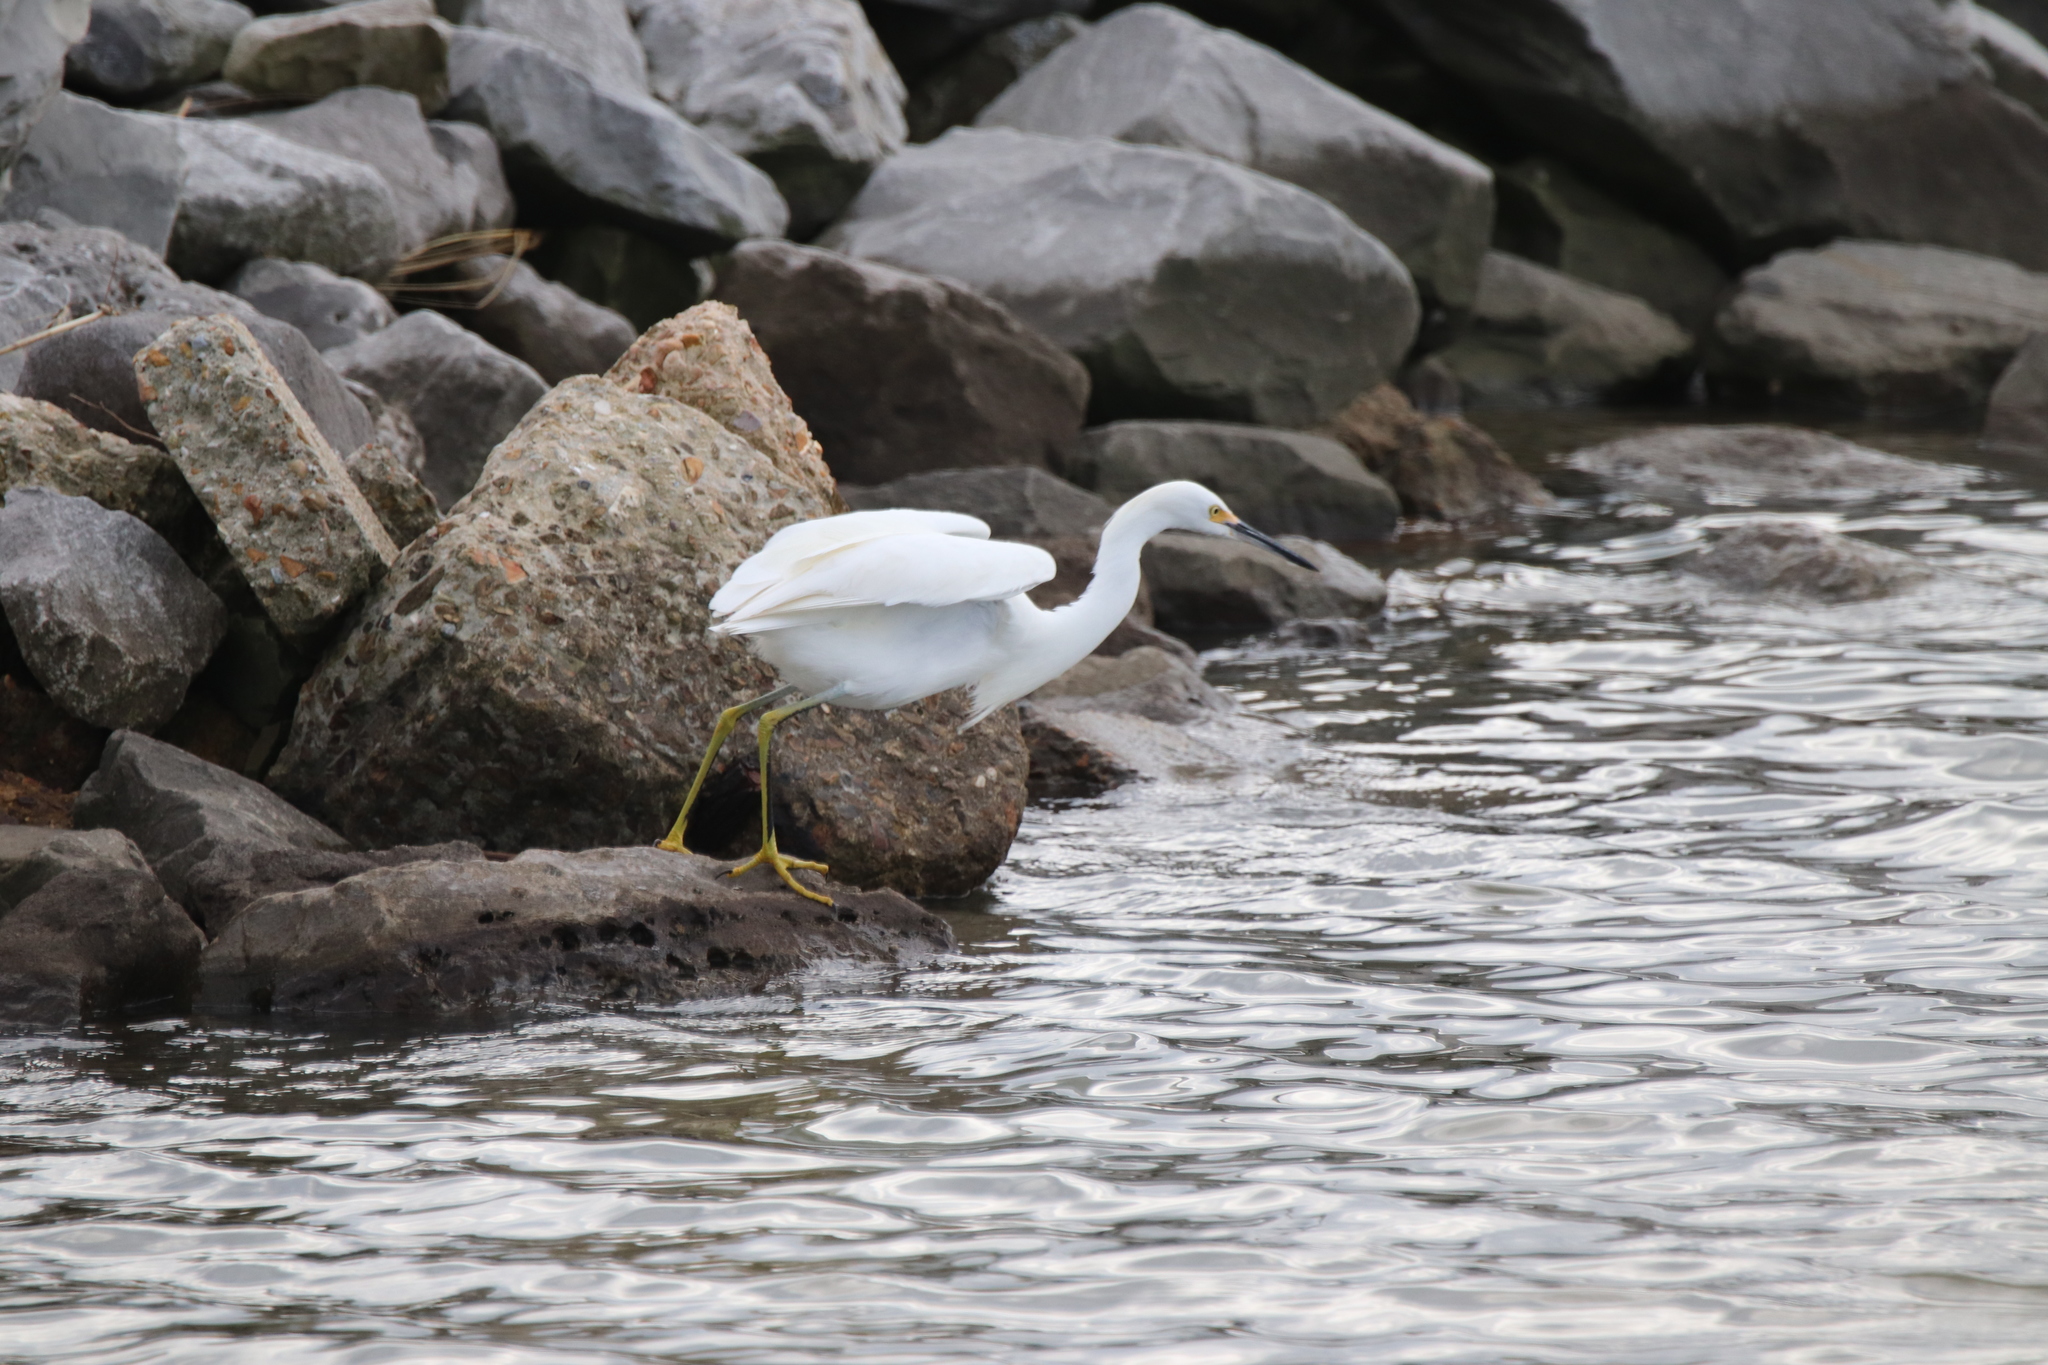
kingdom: Animalia
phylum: Chordata
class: Aves
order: Pelecaniformes
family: Ardeidae
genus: Egretta
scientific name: Egretta thula
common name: Snowy egret
